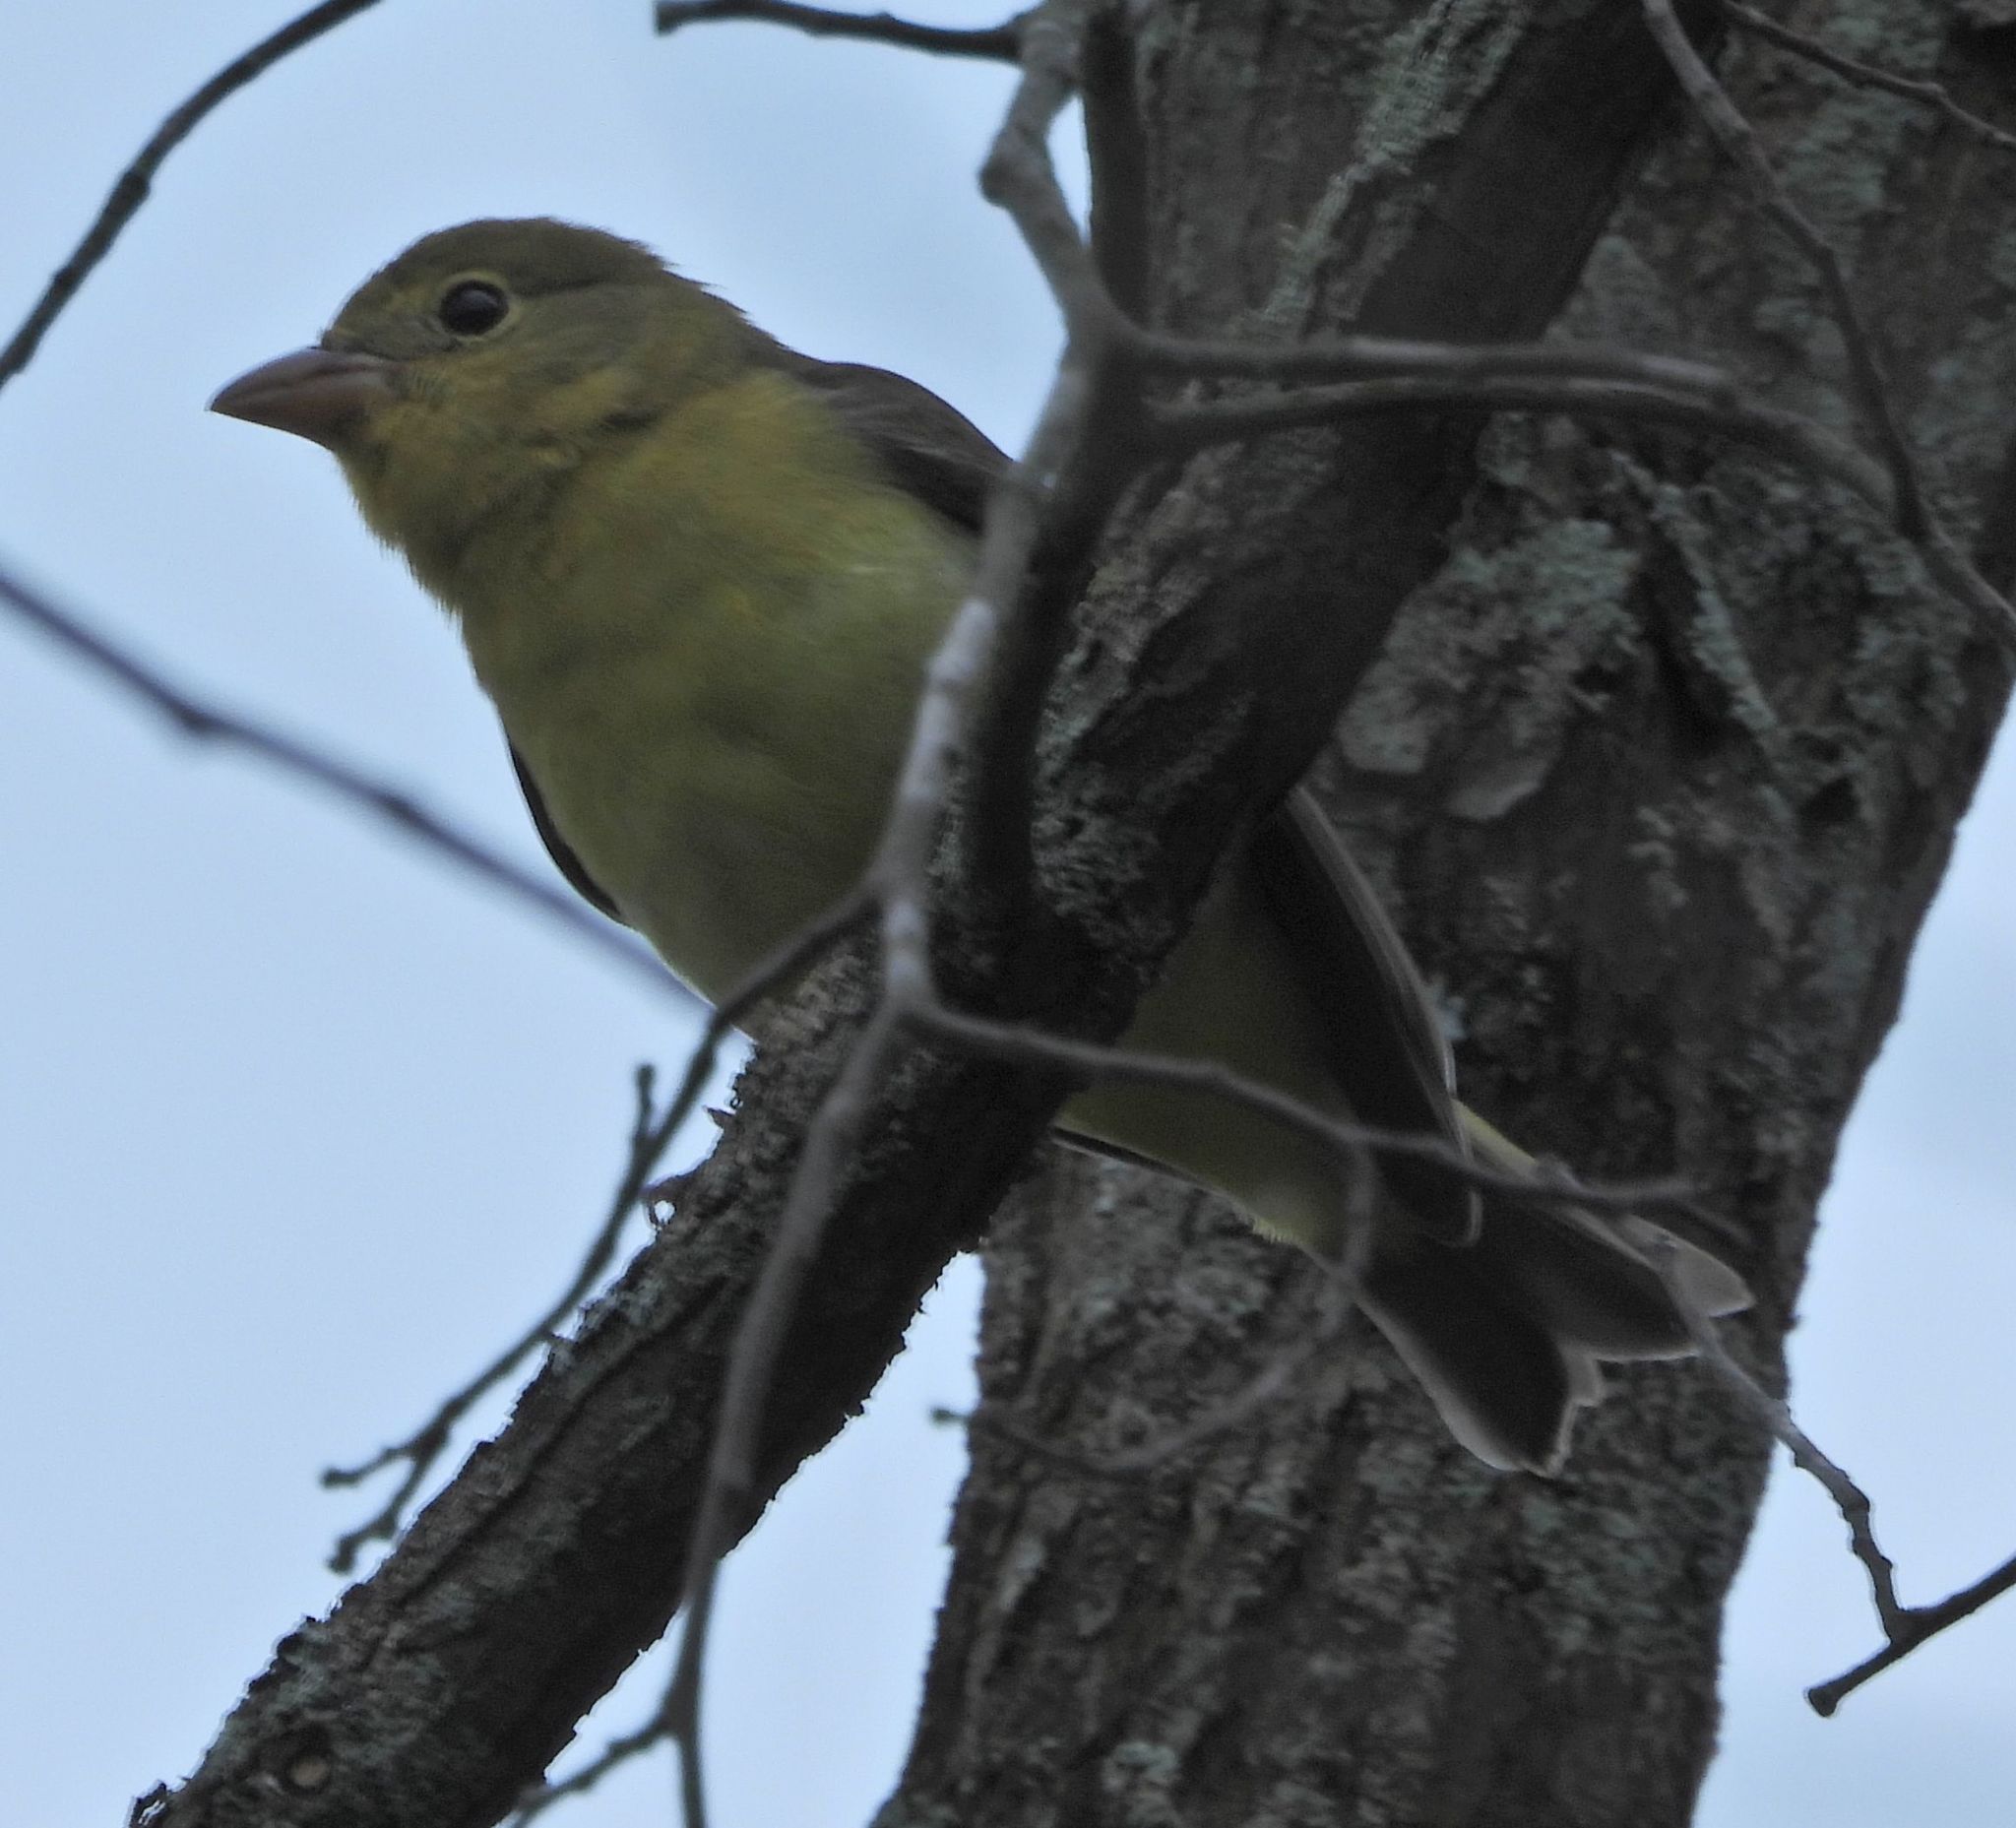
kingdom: Animalia
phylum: Chordata
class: Aves
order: Passeriformes
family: Cardinalidae
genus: Piranga
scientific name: Piranga olivacea
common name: Scarlet tanager
